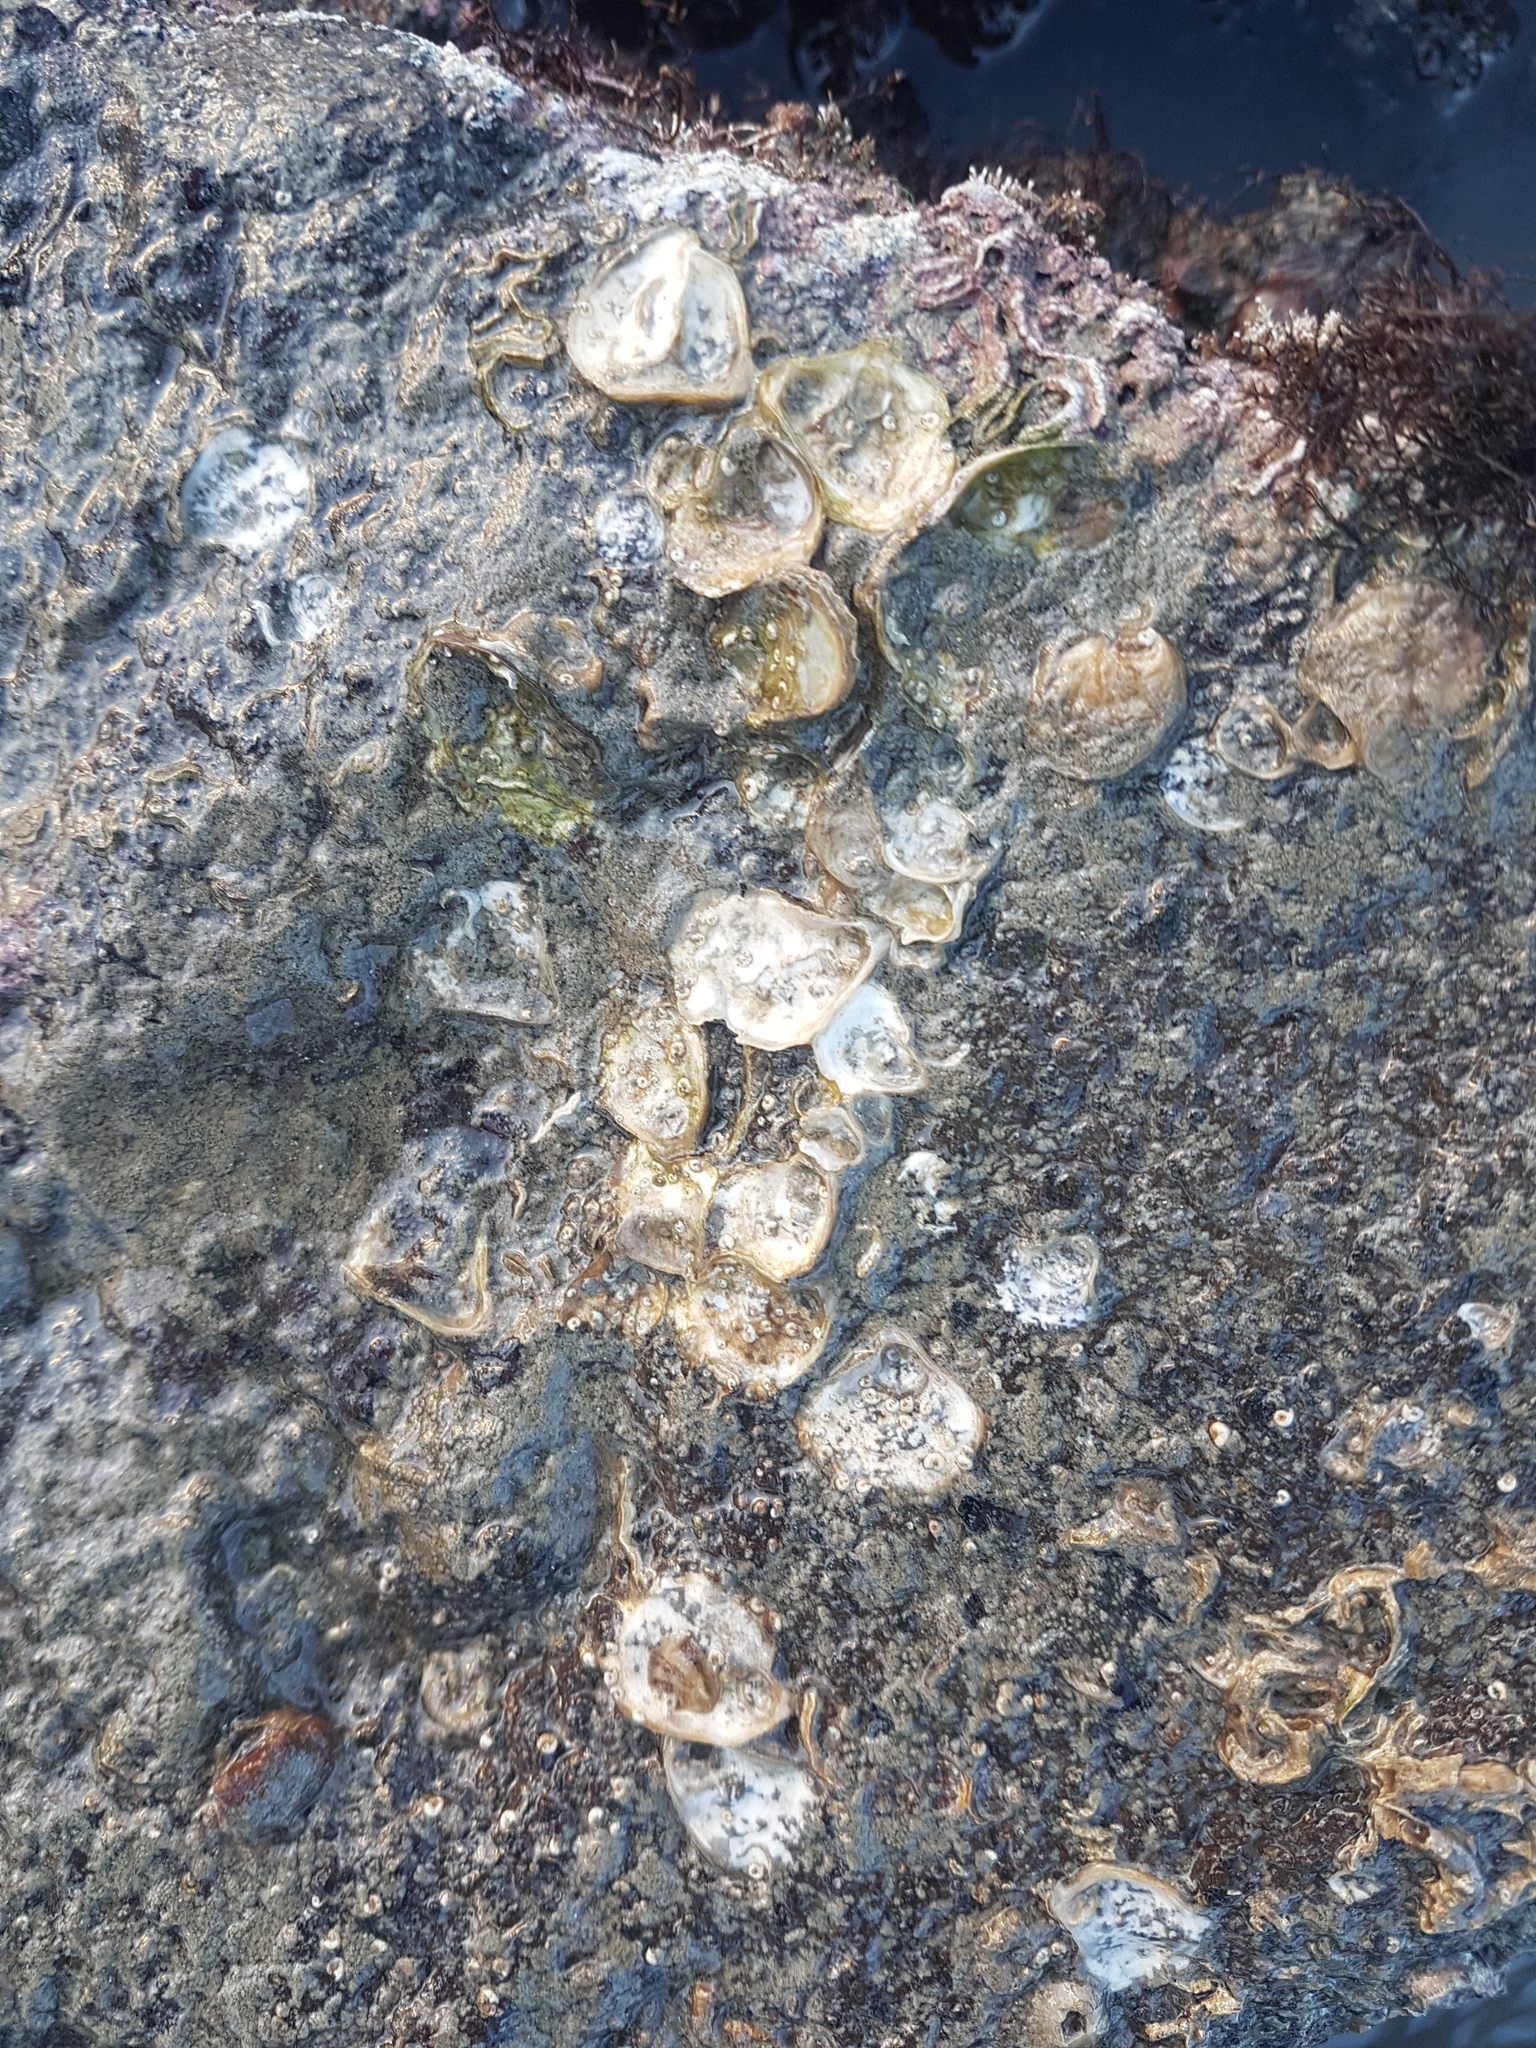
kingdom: Animalia
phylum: Mollusca
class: Bivalvia
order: Ostreida
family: Ostreidae
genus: Ostrea
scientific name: Ostrea chilensis
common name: Chilean oyster
